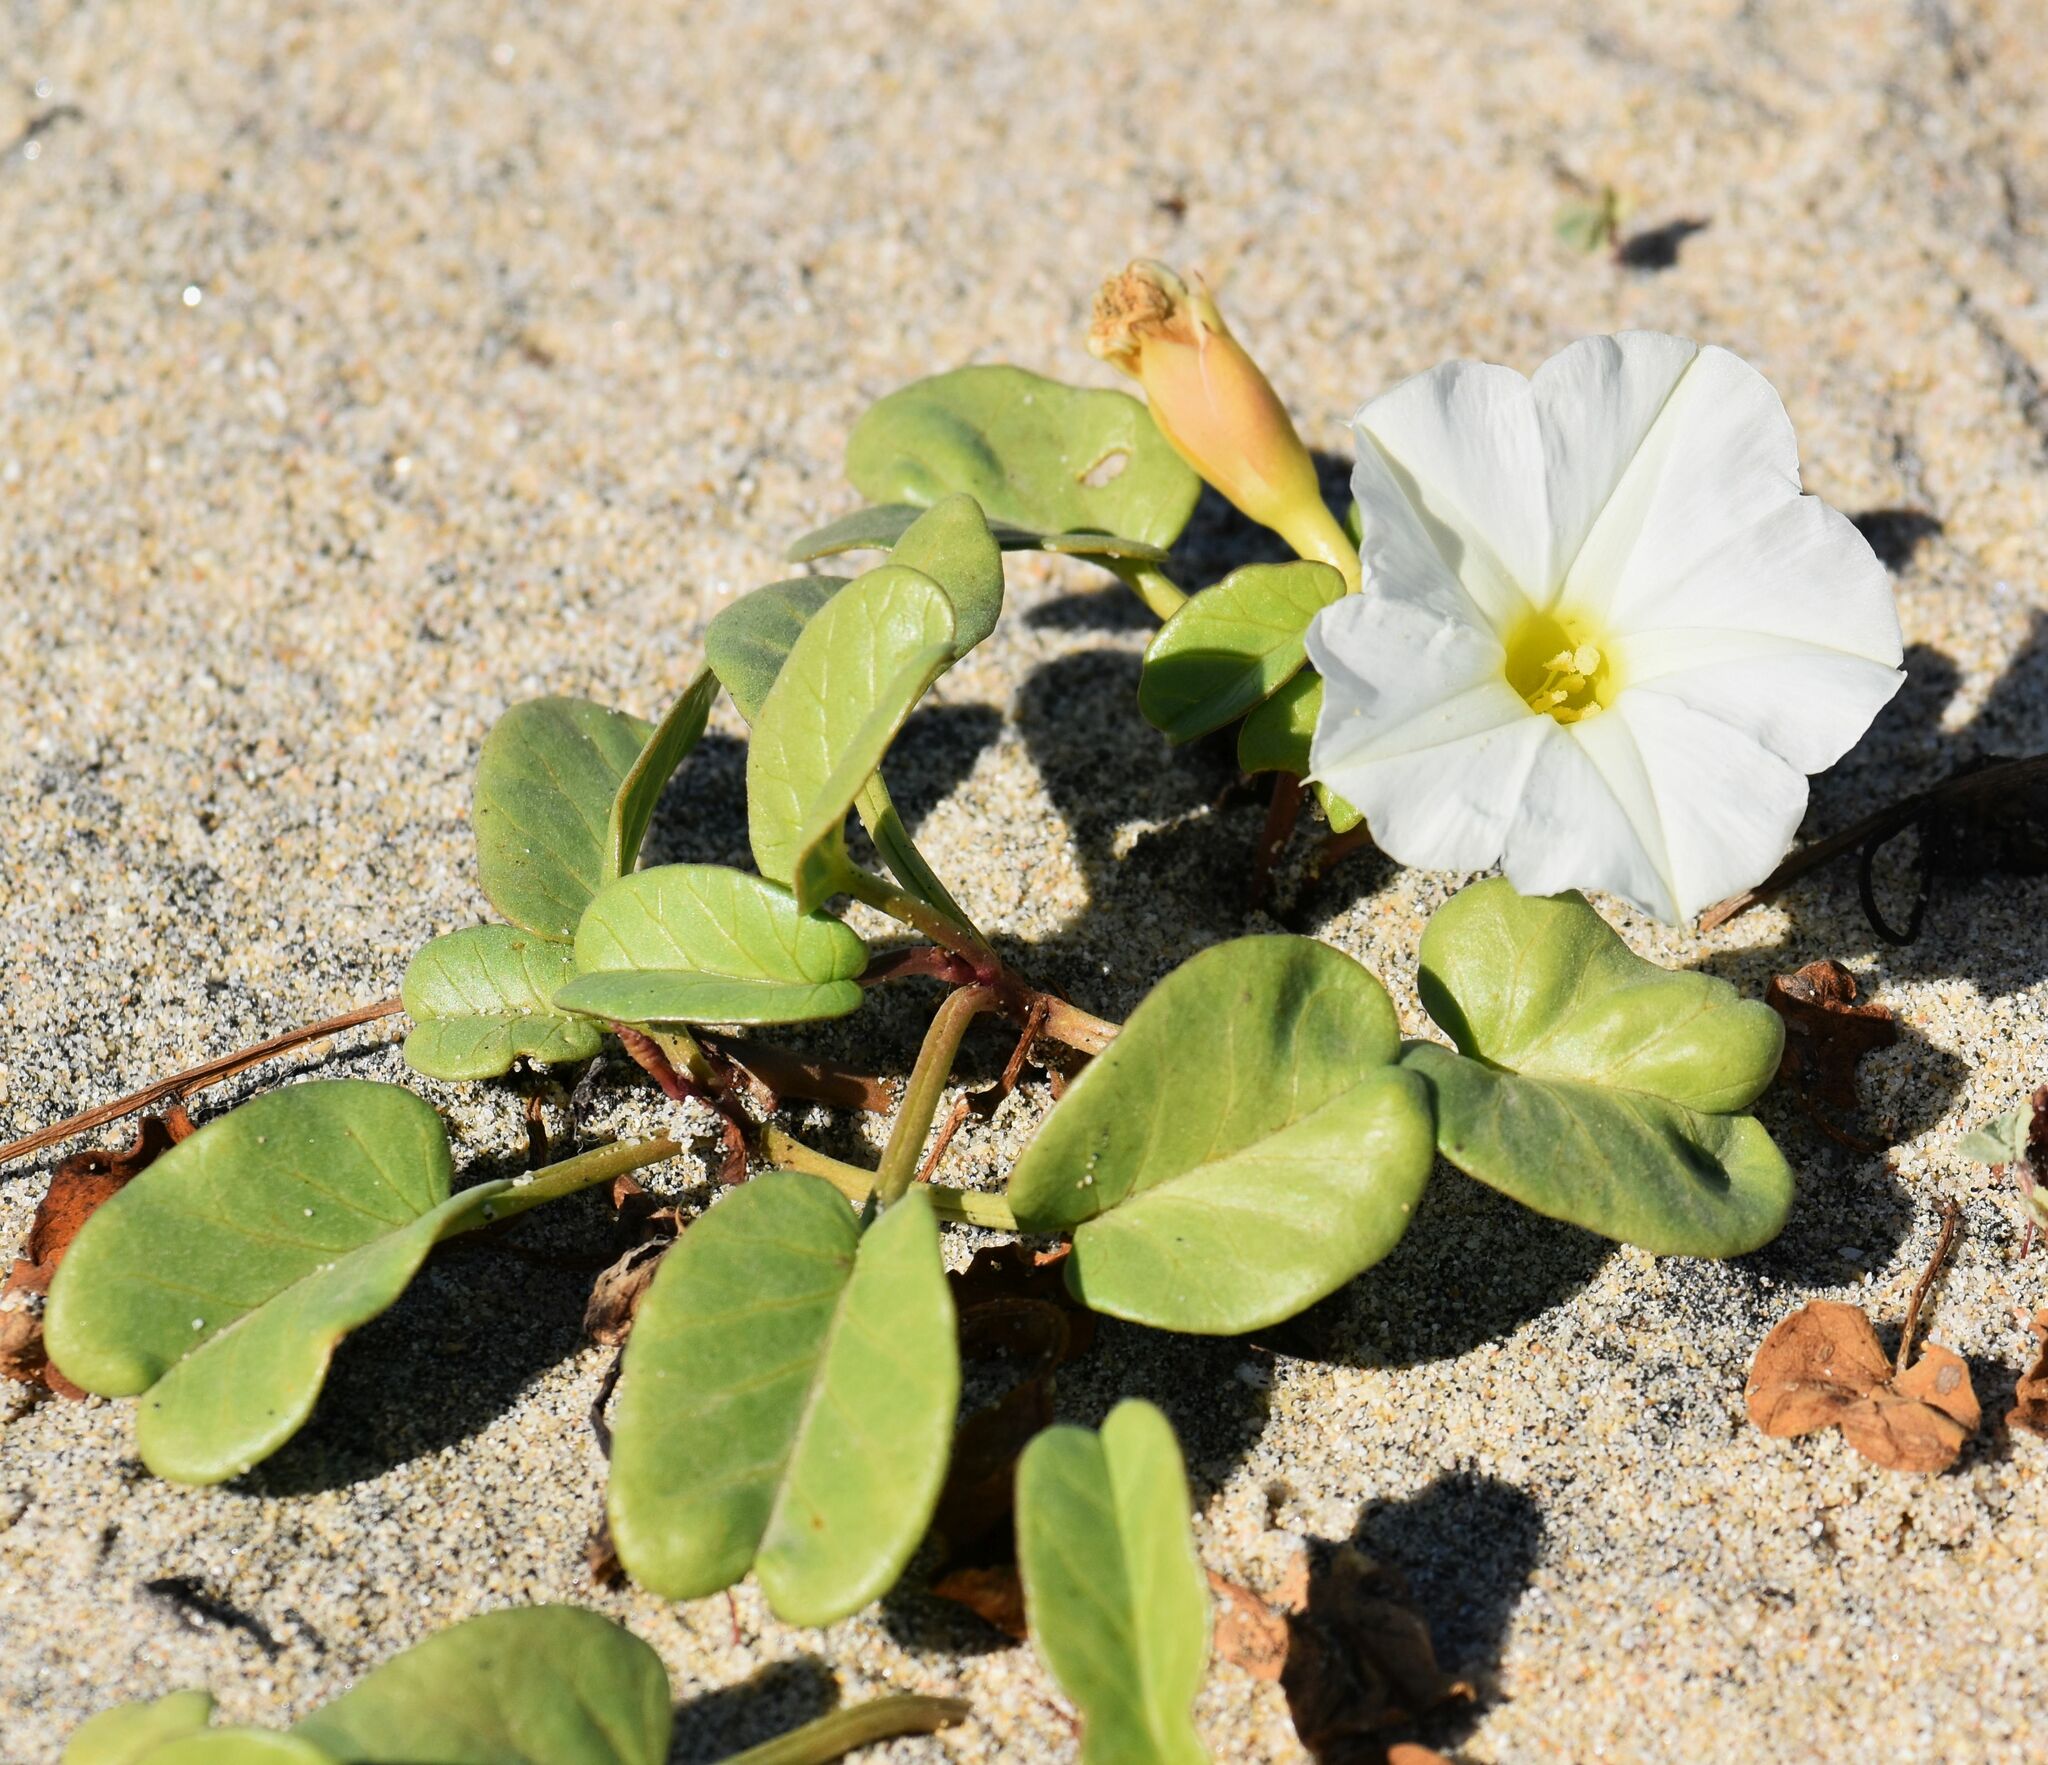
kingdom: Plantae
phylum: Tracheophyta
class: Magnoliopsida
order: Solanales
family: Convolvulaceae
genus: Ipomoea
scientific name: Ipomoea imperati
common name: Fiddle-leaf morning-glory
